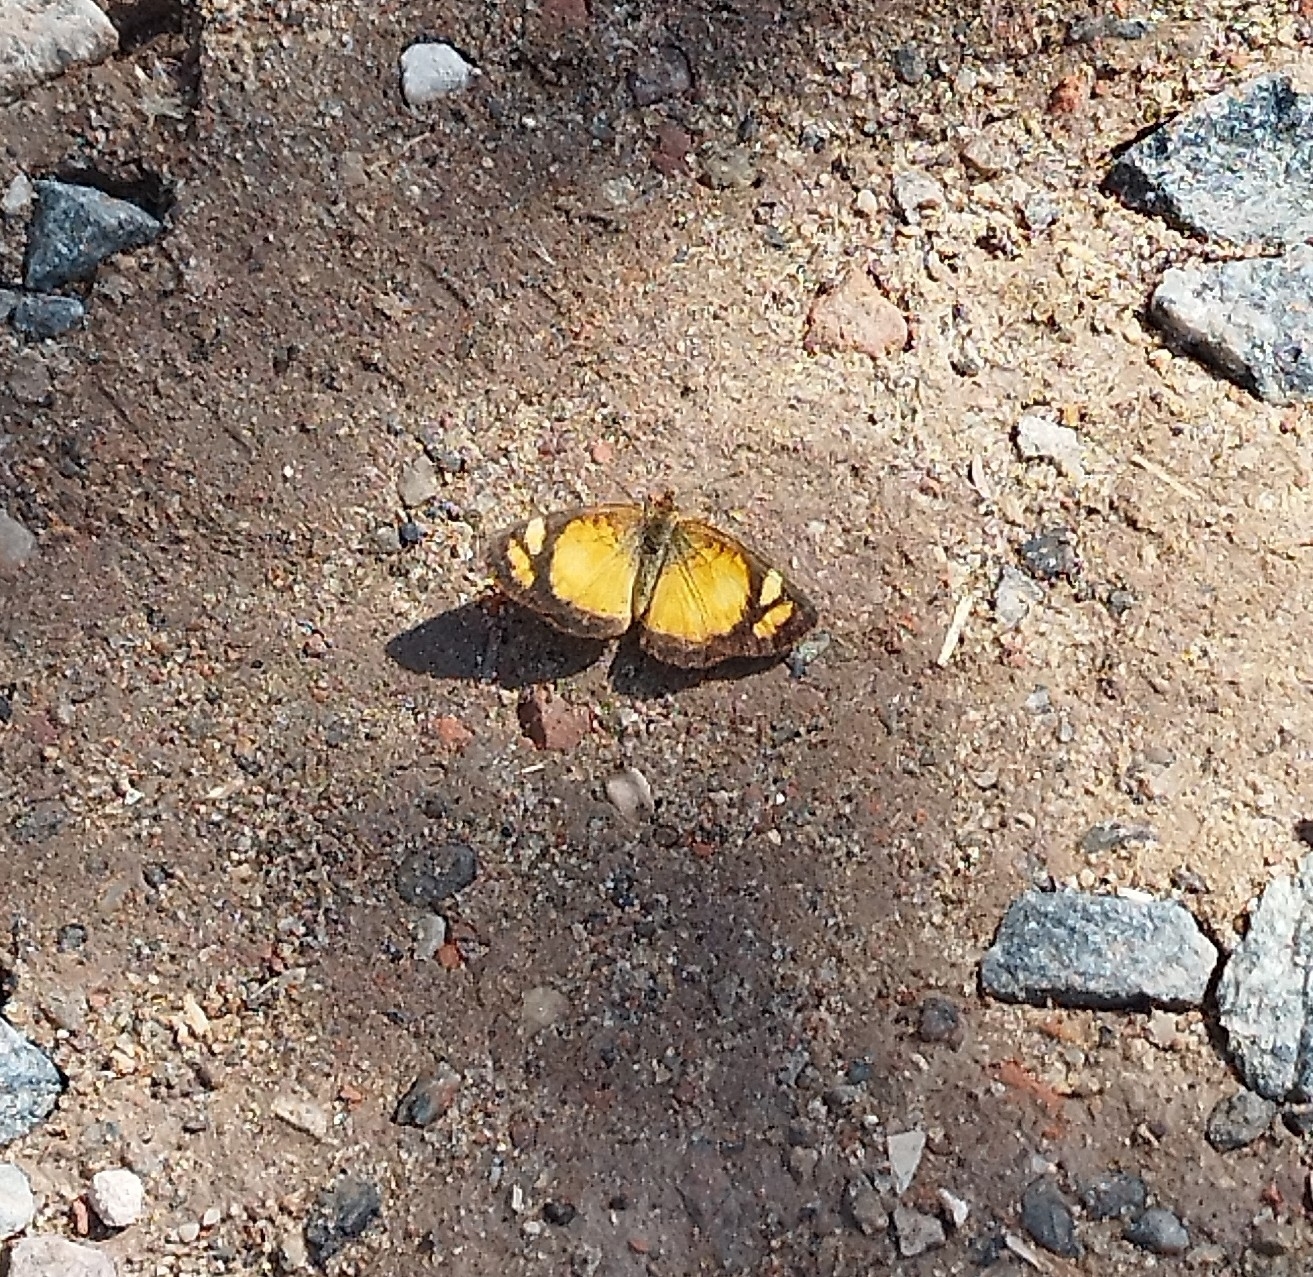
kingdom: Animalia
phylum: Arthropoda
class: Insecta
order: Lepidoptera
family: Nymphalidae
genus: Tegosa
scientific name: Tegosa claudina
